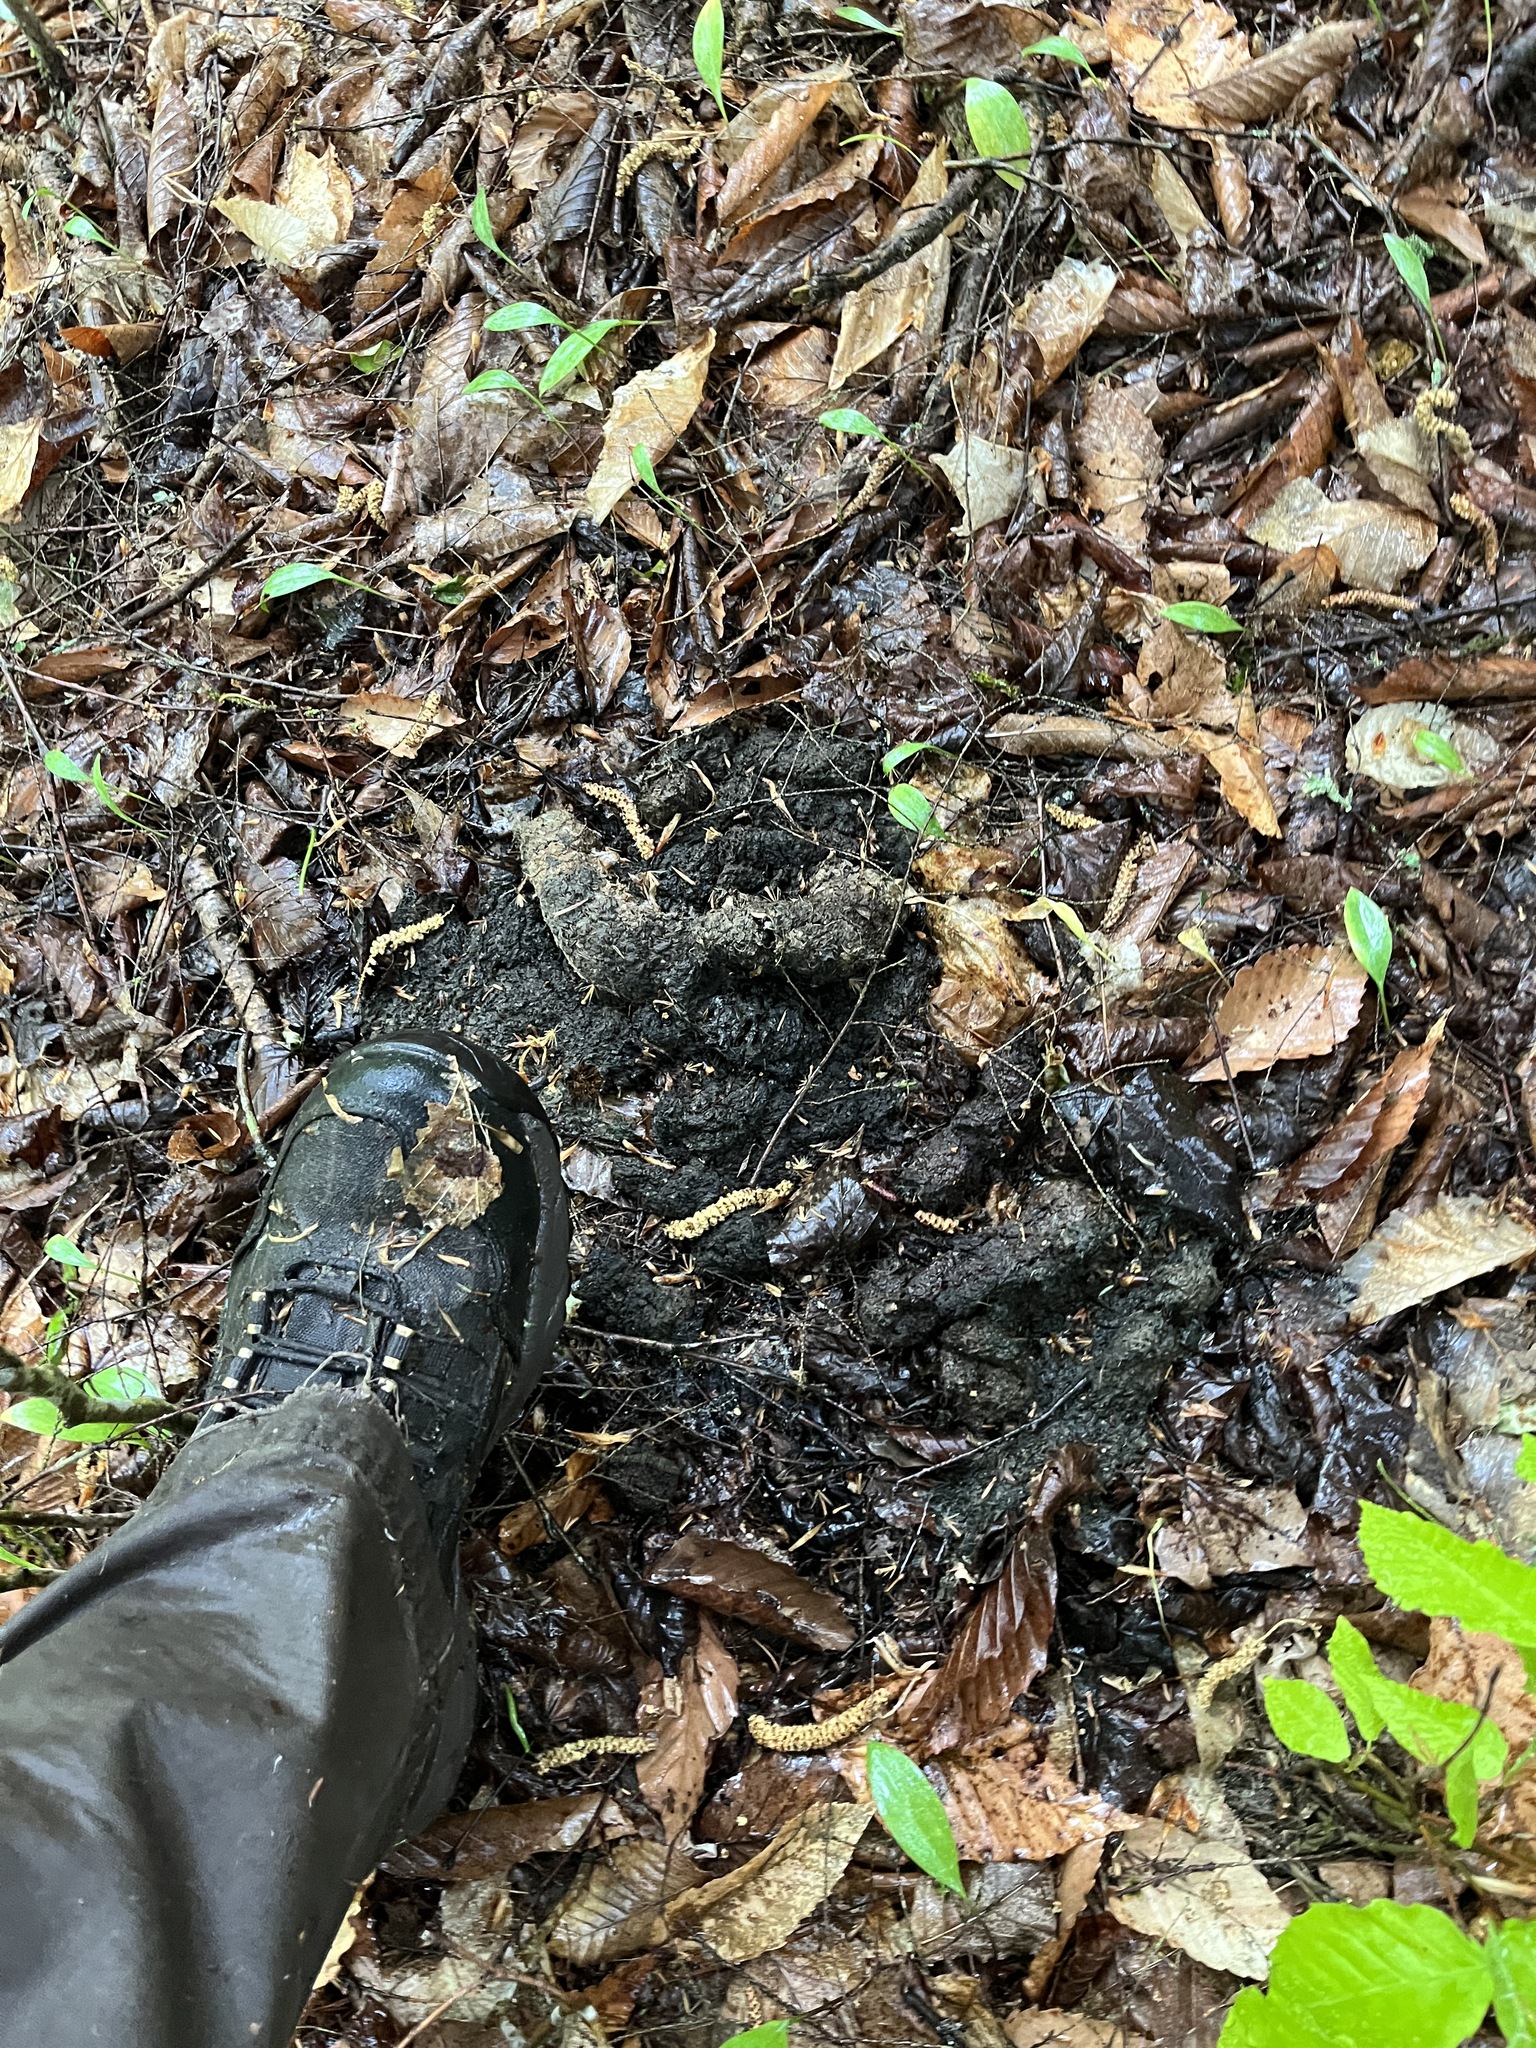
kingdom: Animalia
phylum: Chordata
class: Mammalia
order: Carnivora
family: Ursidae
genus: Ursus
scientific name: Ursus americanus
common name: American black bear
